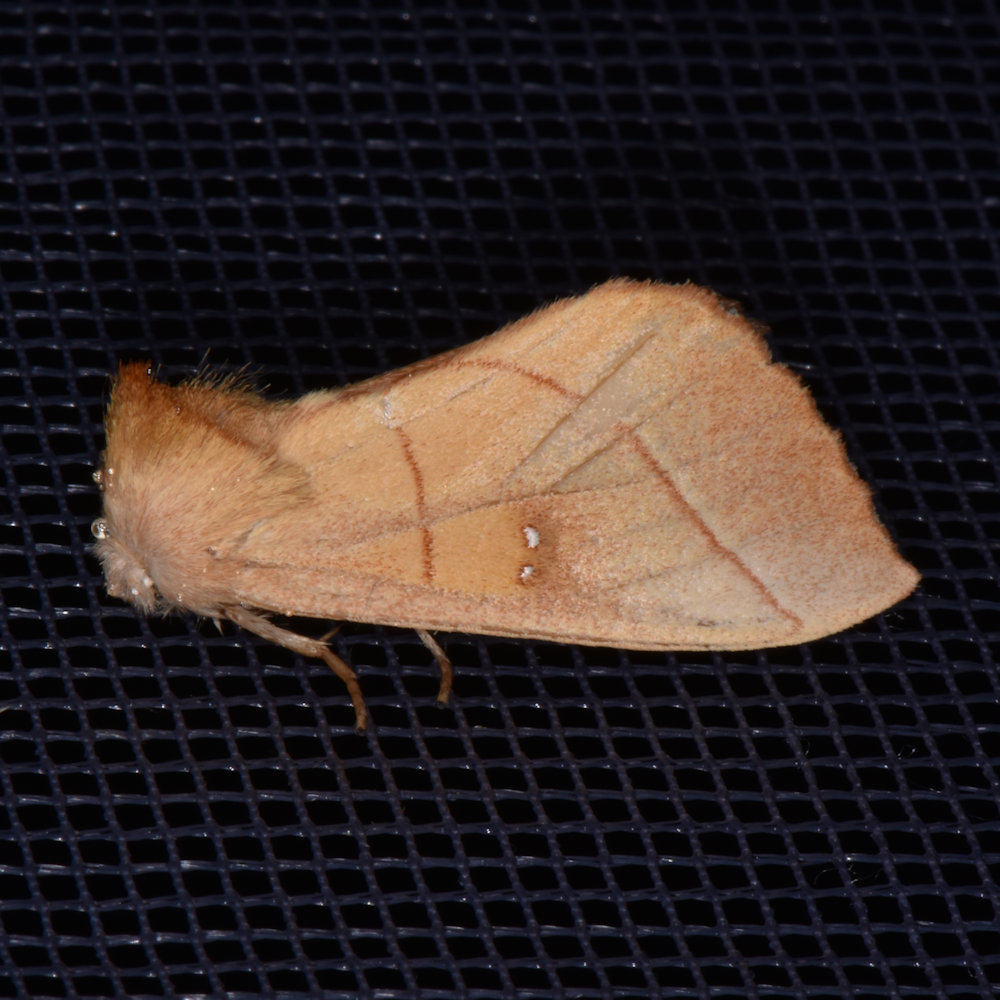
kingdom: Animalia
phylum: Arthropoda
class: Insecta
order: Lepidoptera
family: Notodontidae
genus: Nadata
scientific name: Nadata gibbosa
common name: White-dotted prominent
